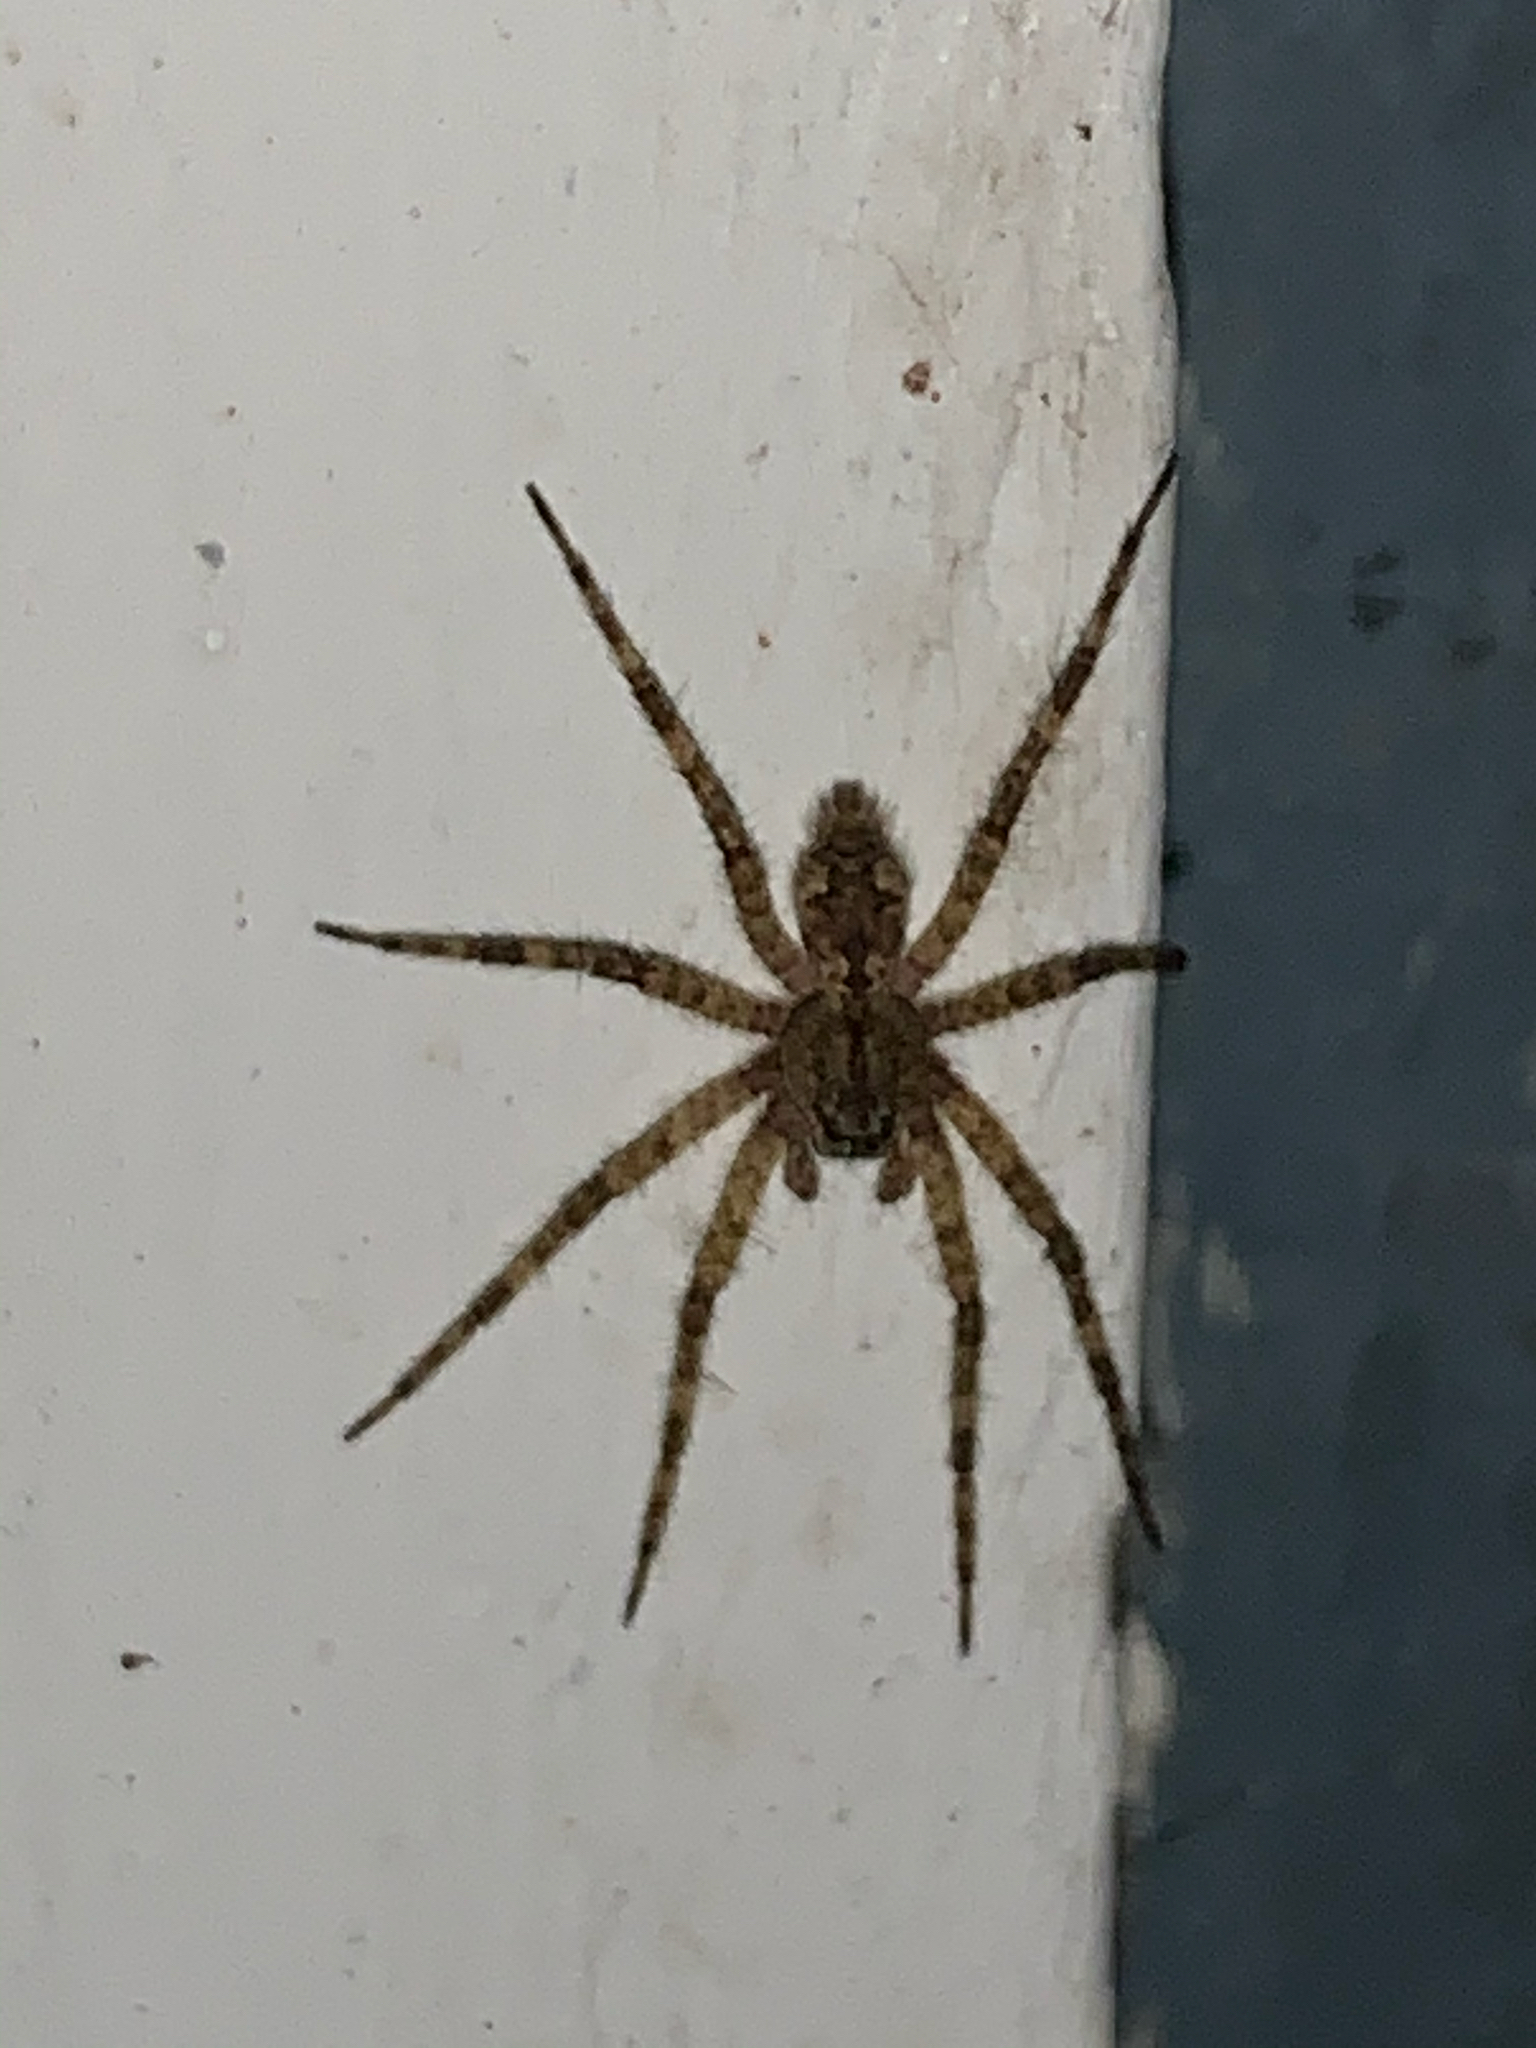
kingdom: Animalia
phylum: Arthropoda
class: Arachnida
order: Araneae
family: Pisauridae
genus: Dolomedes
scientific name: Dolomedes
